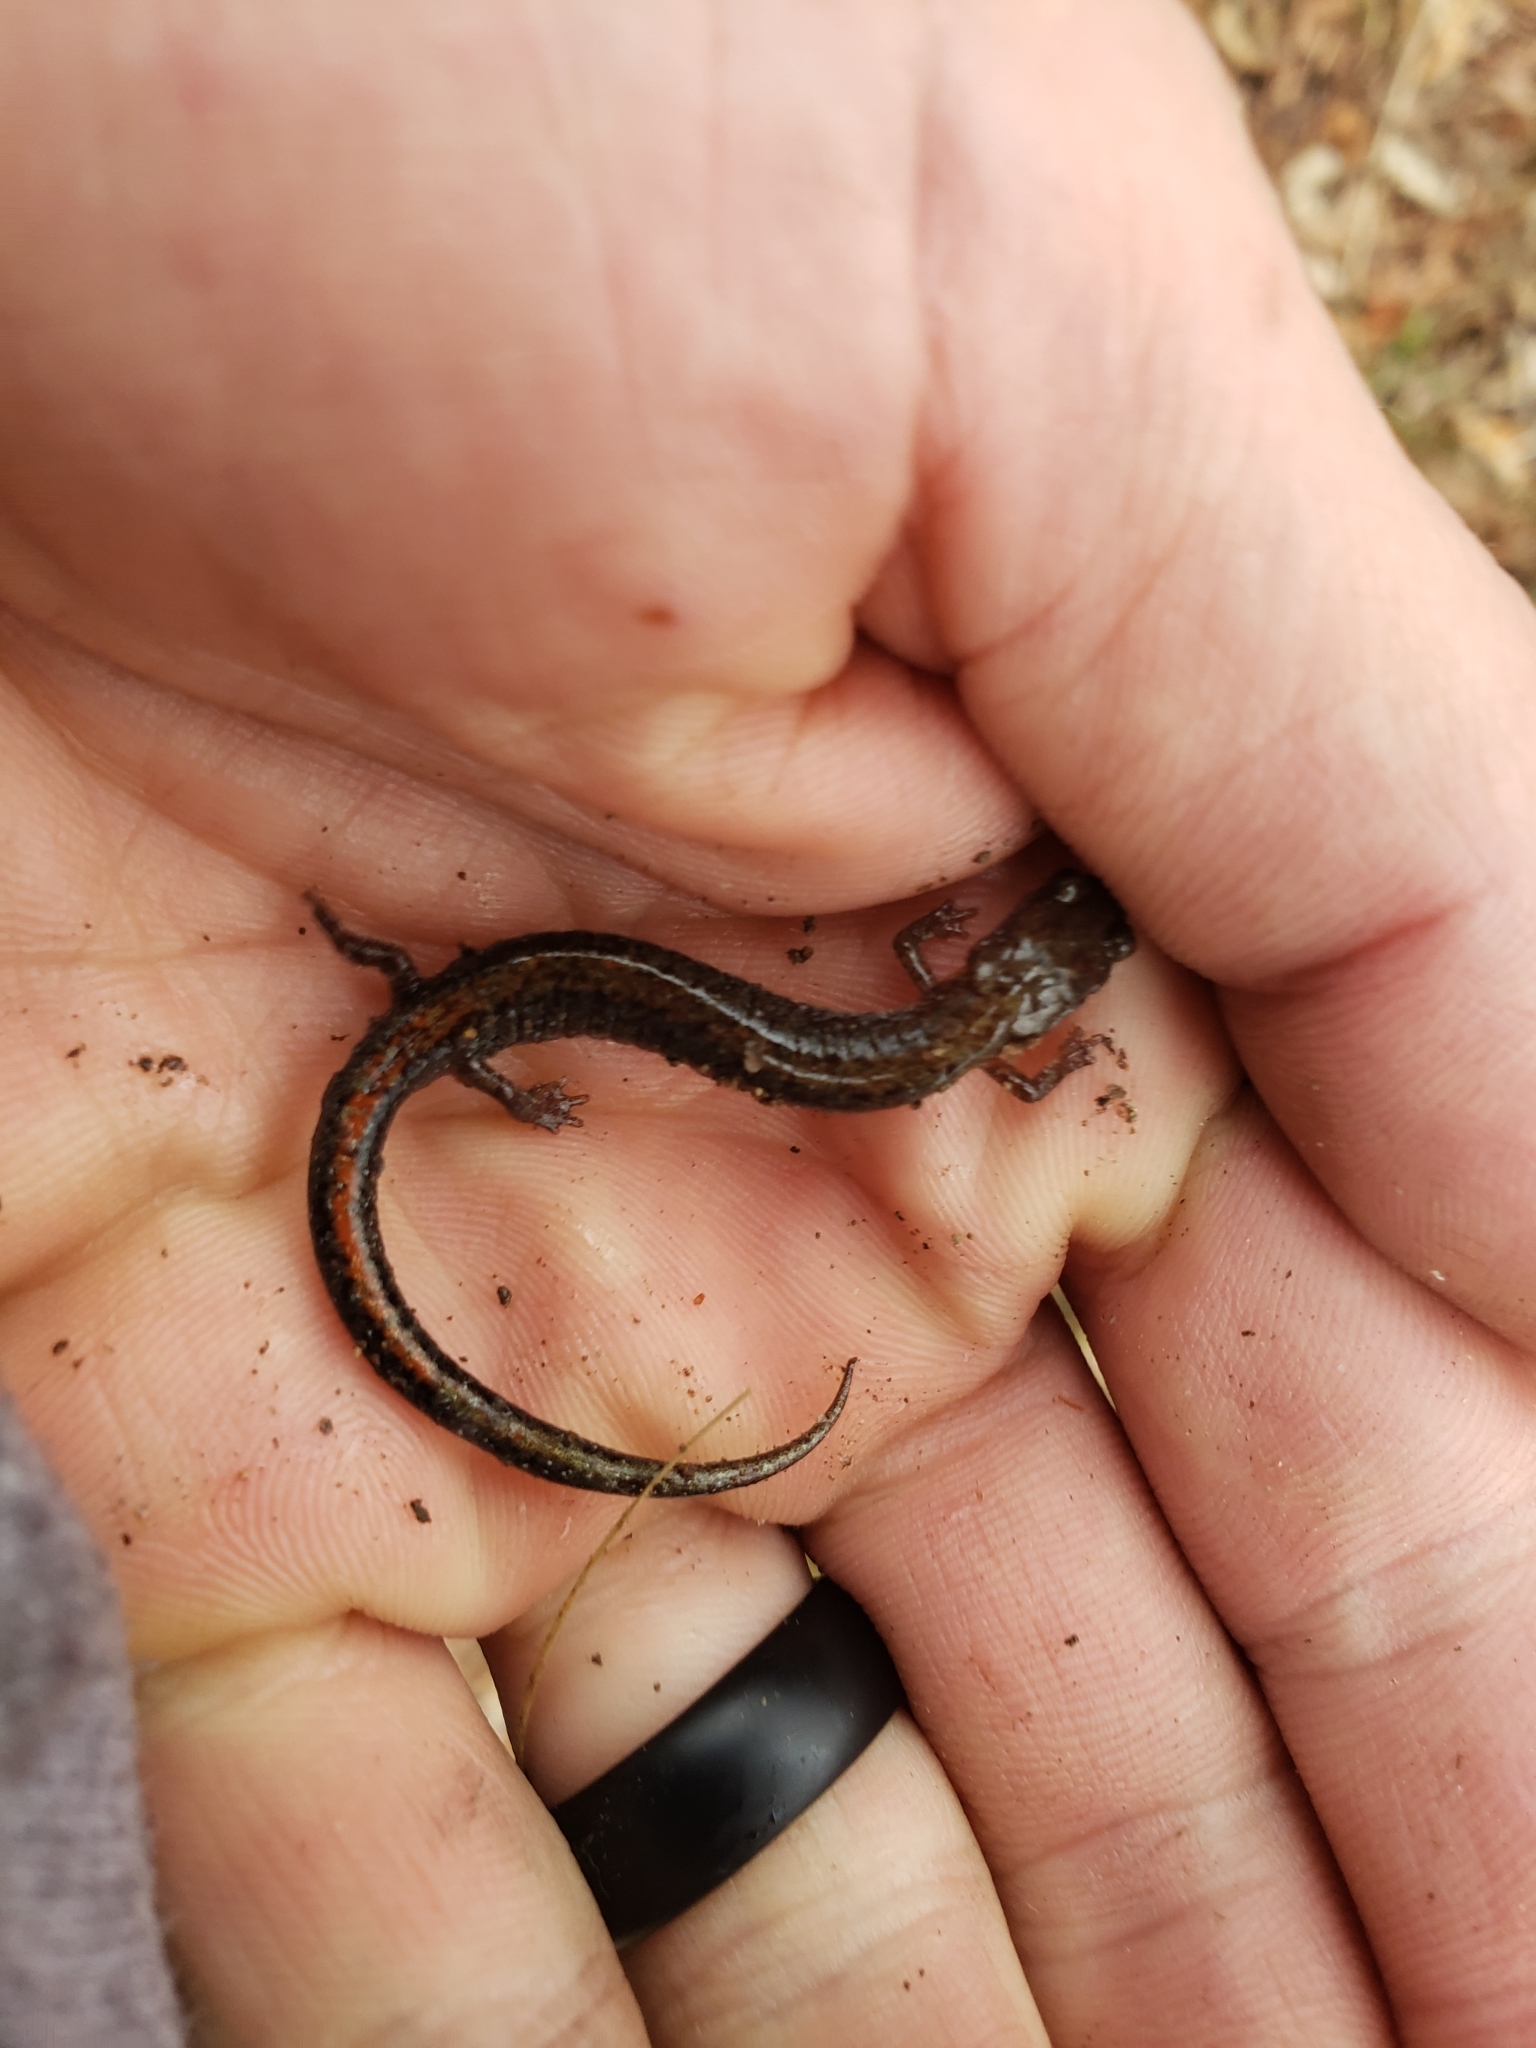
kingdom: Animalia
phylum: Chordata
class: Amphibia
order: Caudata
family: Plethodontidae
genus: Plethodon
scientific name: Plethodon serratus
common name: Southern red-backed salamander
